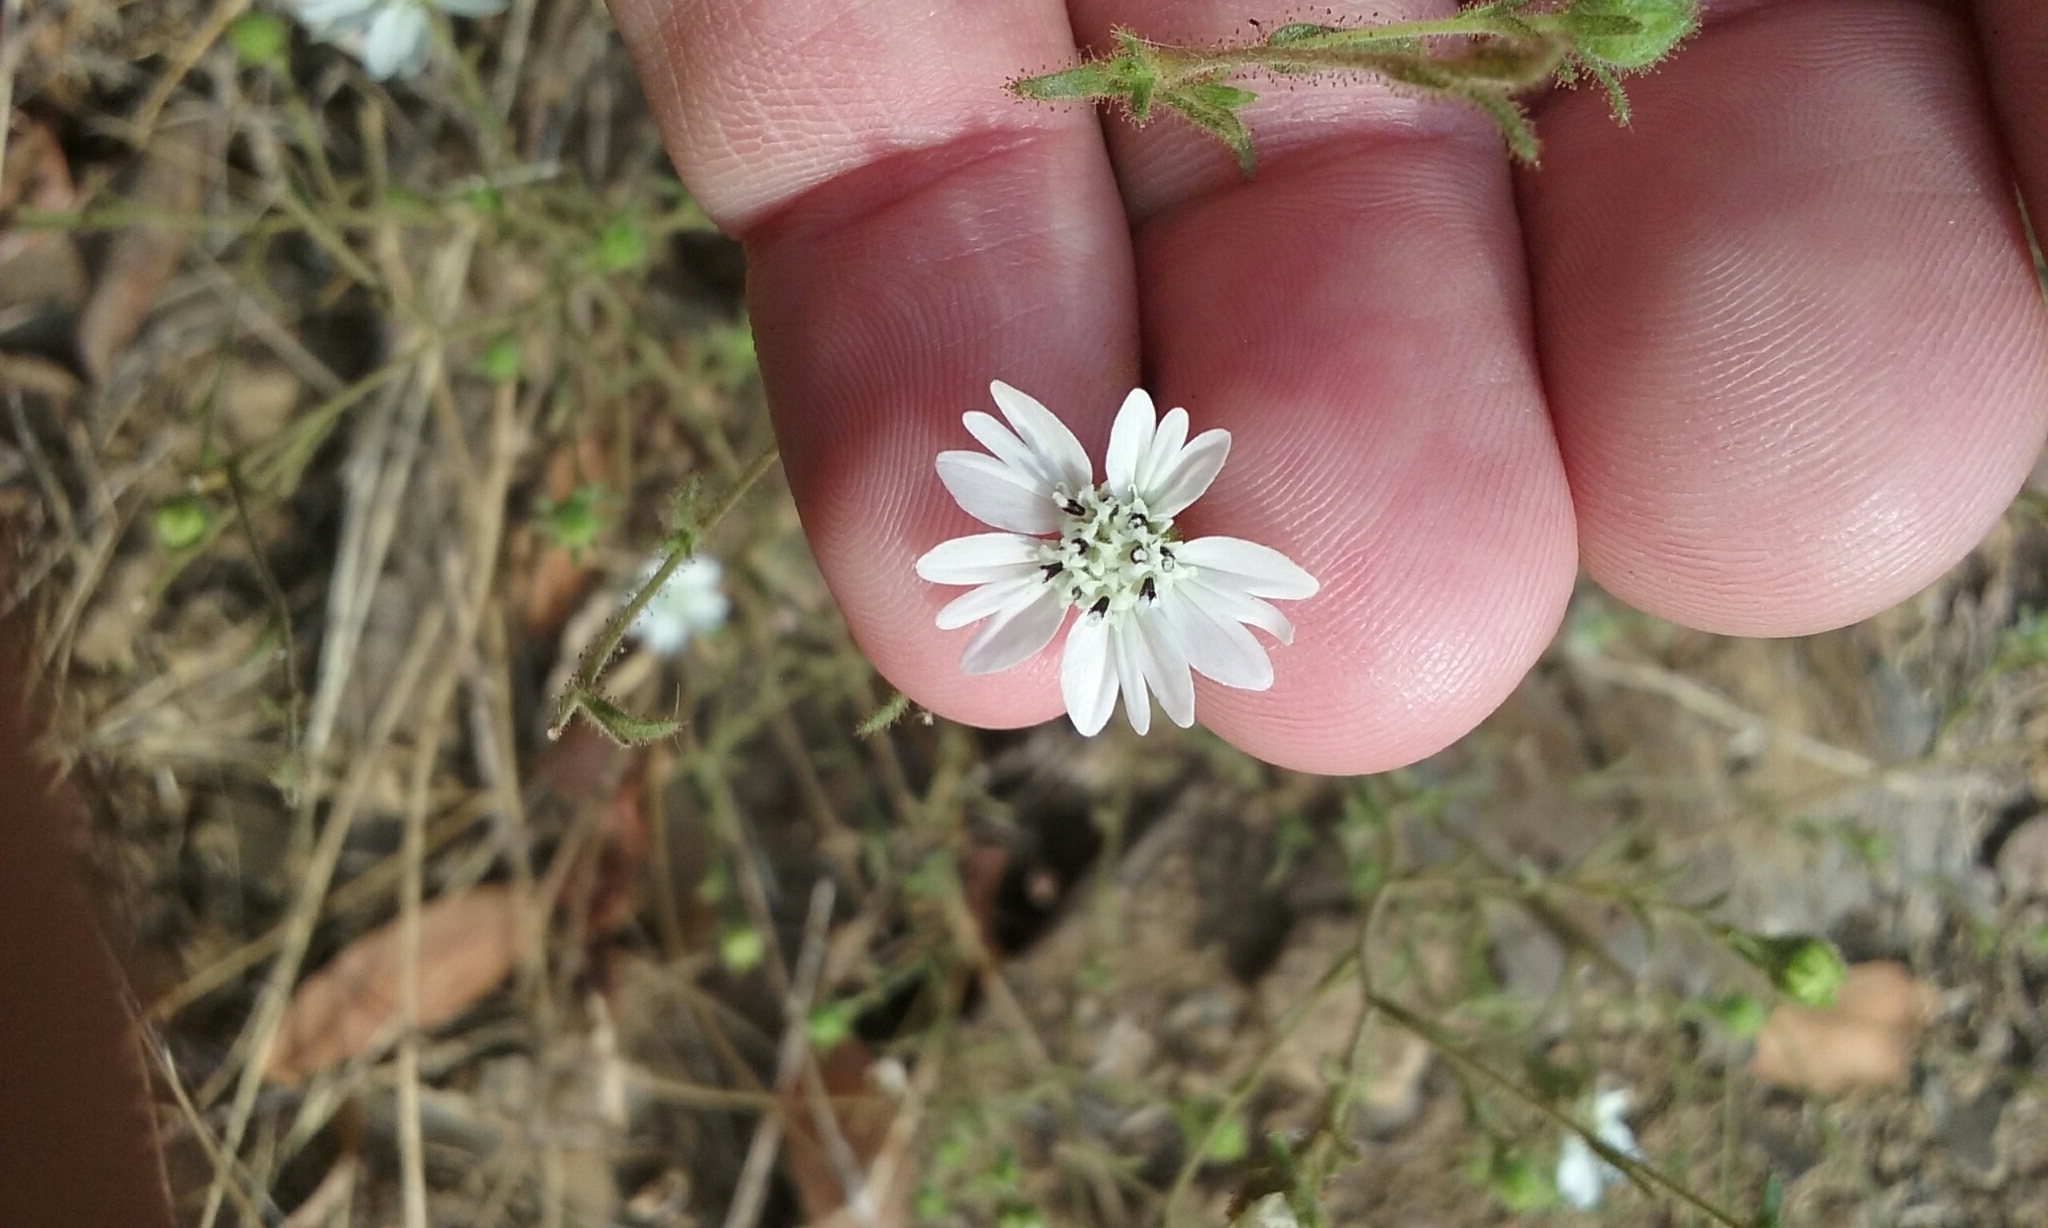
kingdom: Plantae
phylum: Tracheophyta
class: Magnoliopsida
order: Asterales
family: Asteraceae
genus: Hemizonia
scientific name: Hemizonia congesta
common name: Hayfield tarweed
